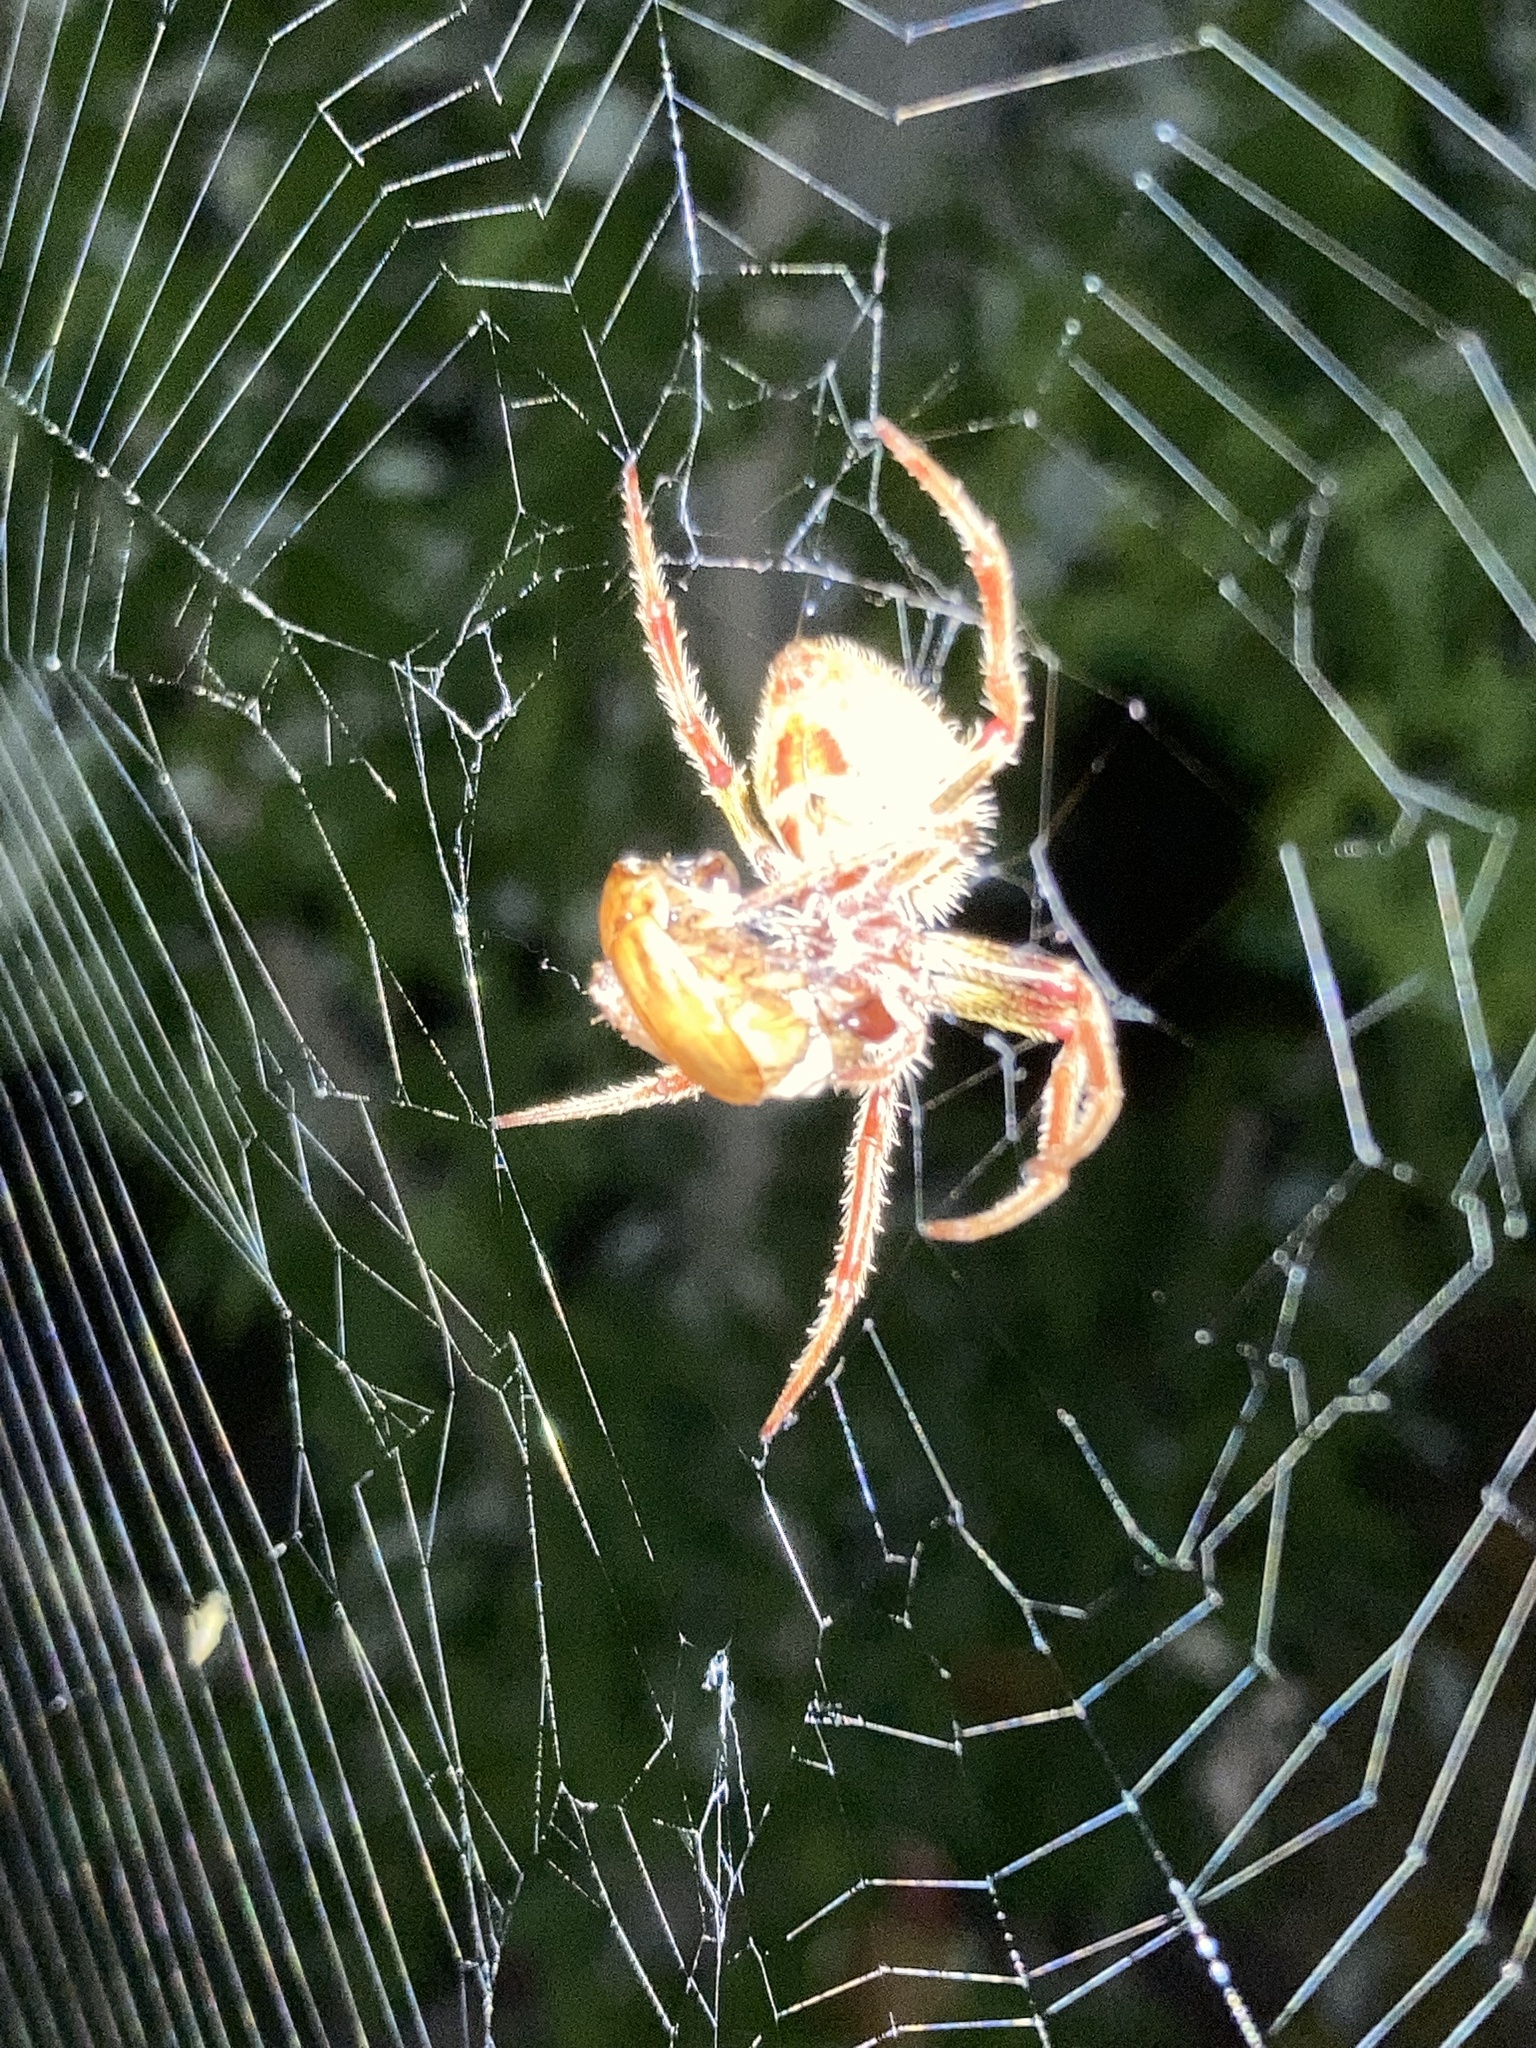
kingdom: Animalia
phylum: Arthropoda
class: Arachnida
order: Araneae
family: Araneidae
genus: Eriophora
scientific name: Eriophora ravilla
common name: Orb weavers
